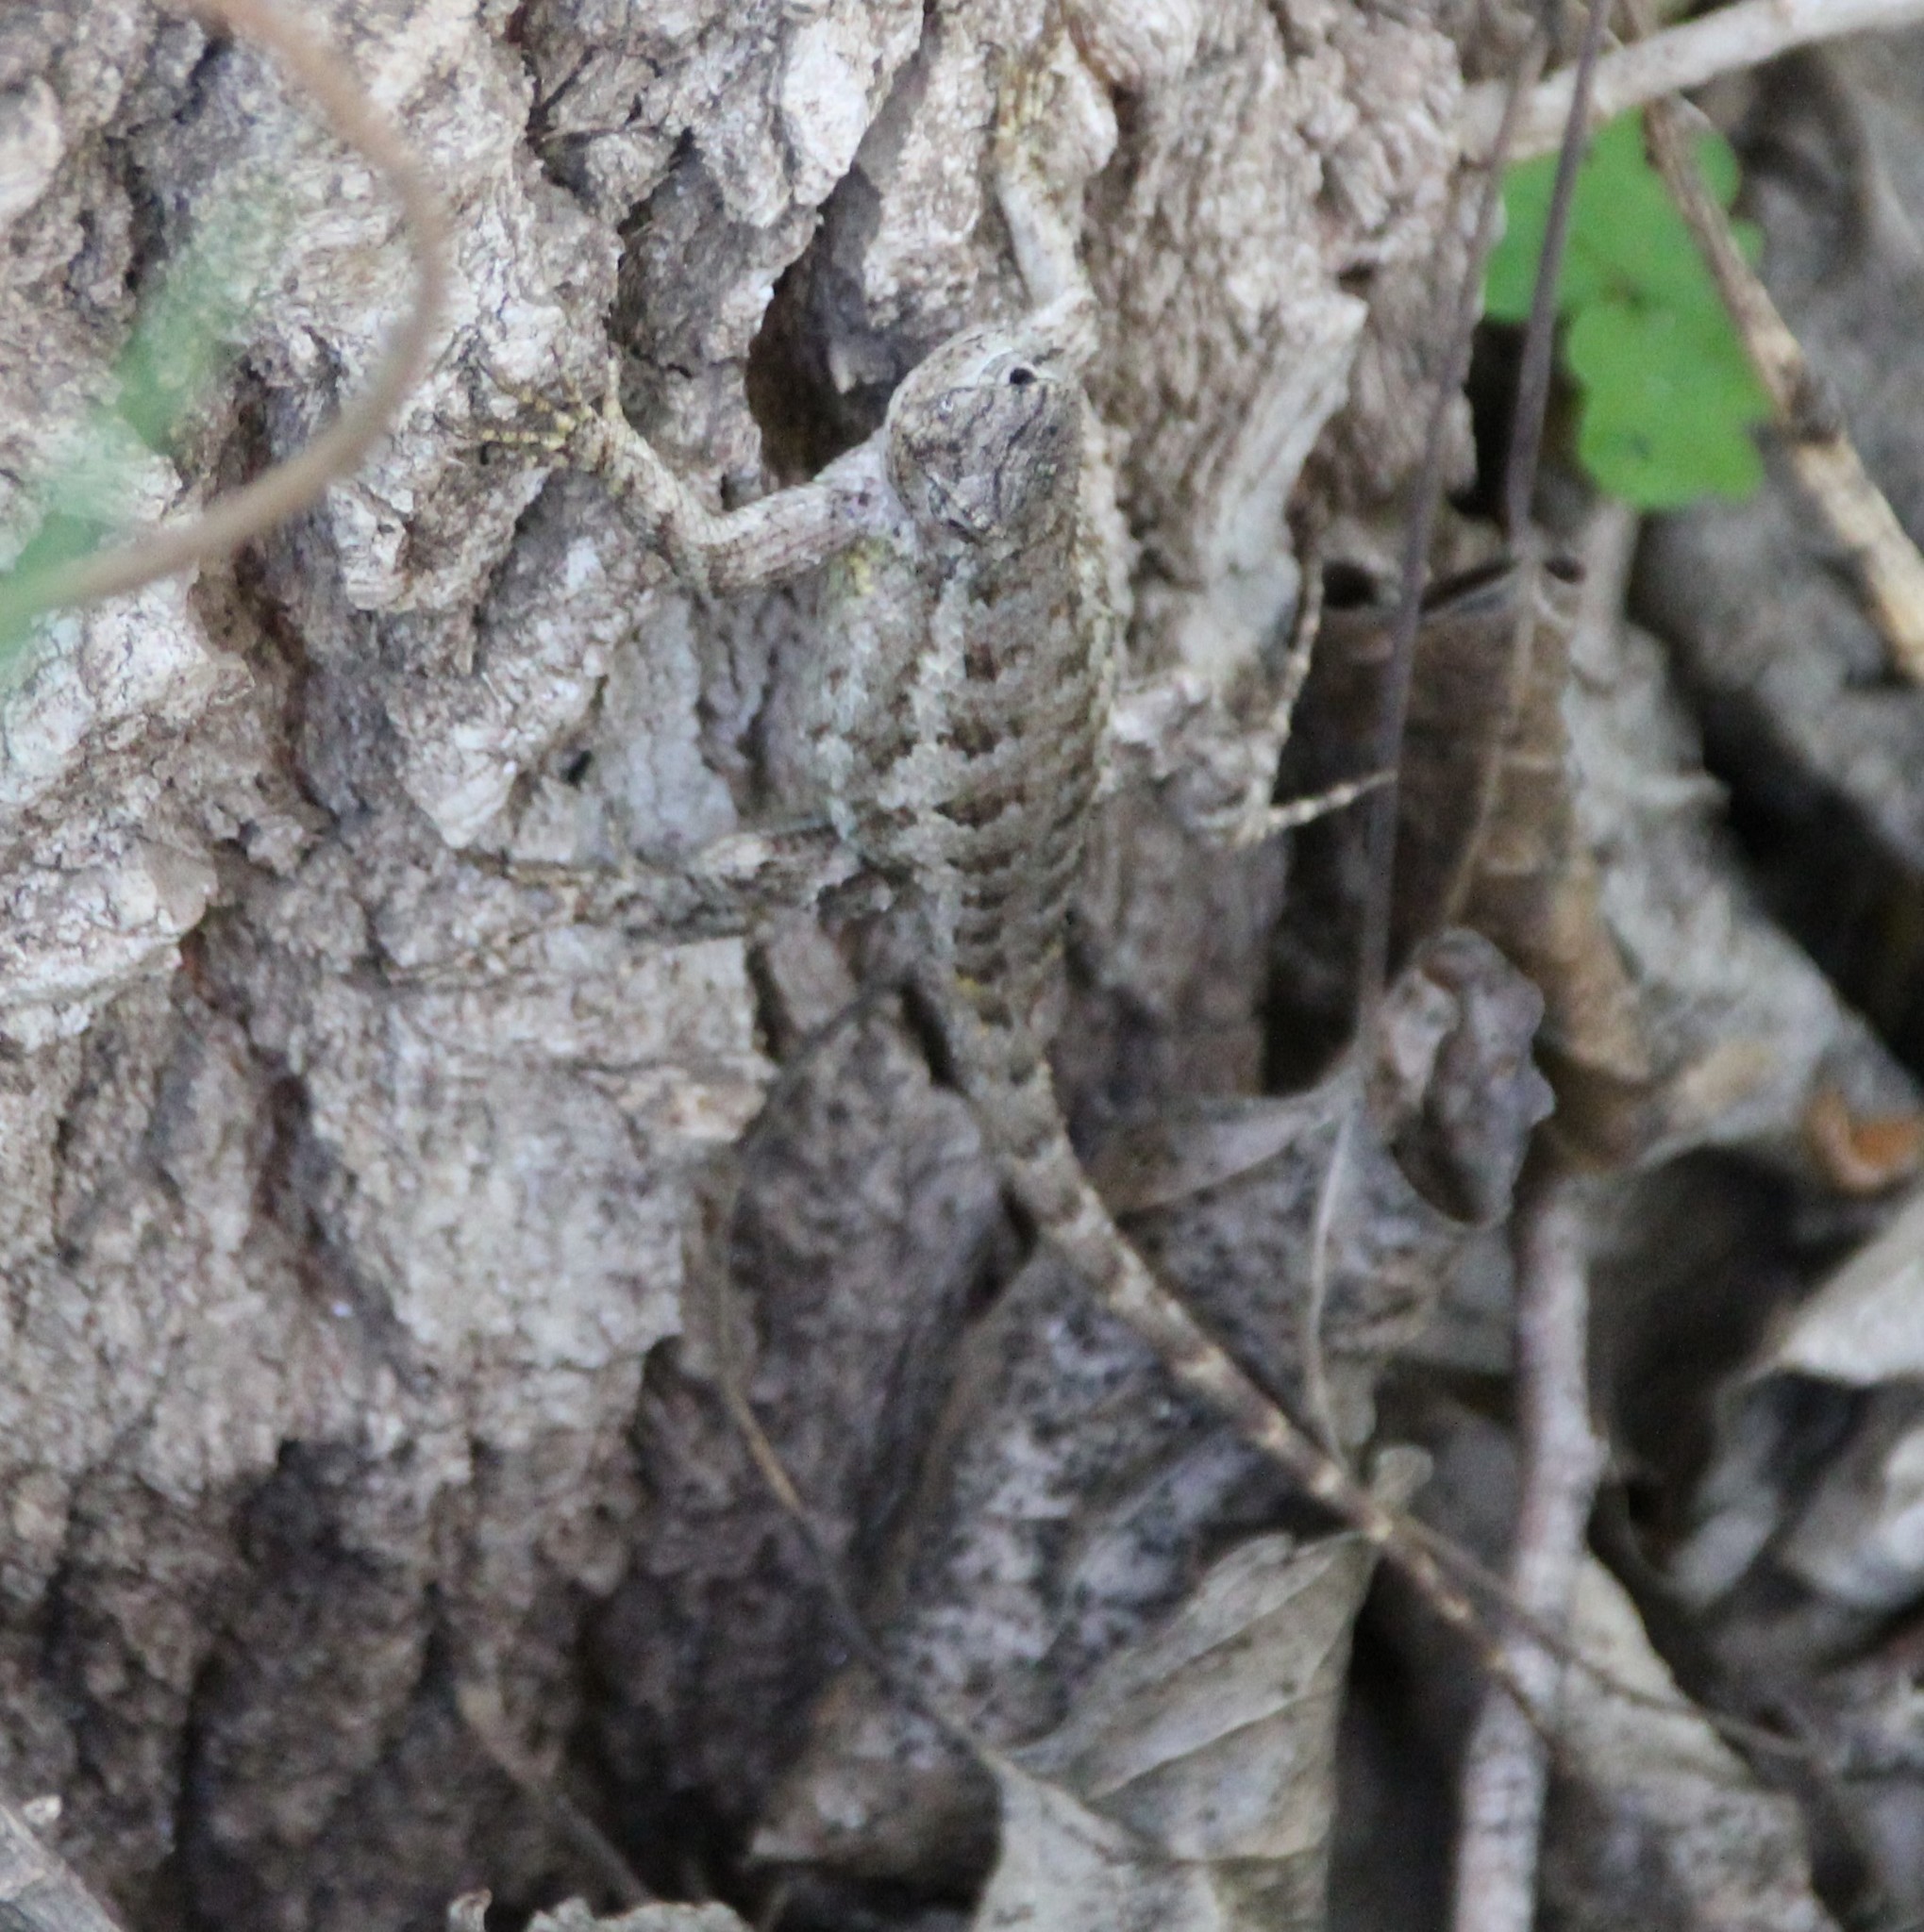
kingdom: Animalia
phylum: Chordata
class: Squamata
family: Phrynosomatidae
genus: Sceloporus
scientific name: Sceloporus occidentalis
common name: Western fence lizard
